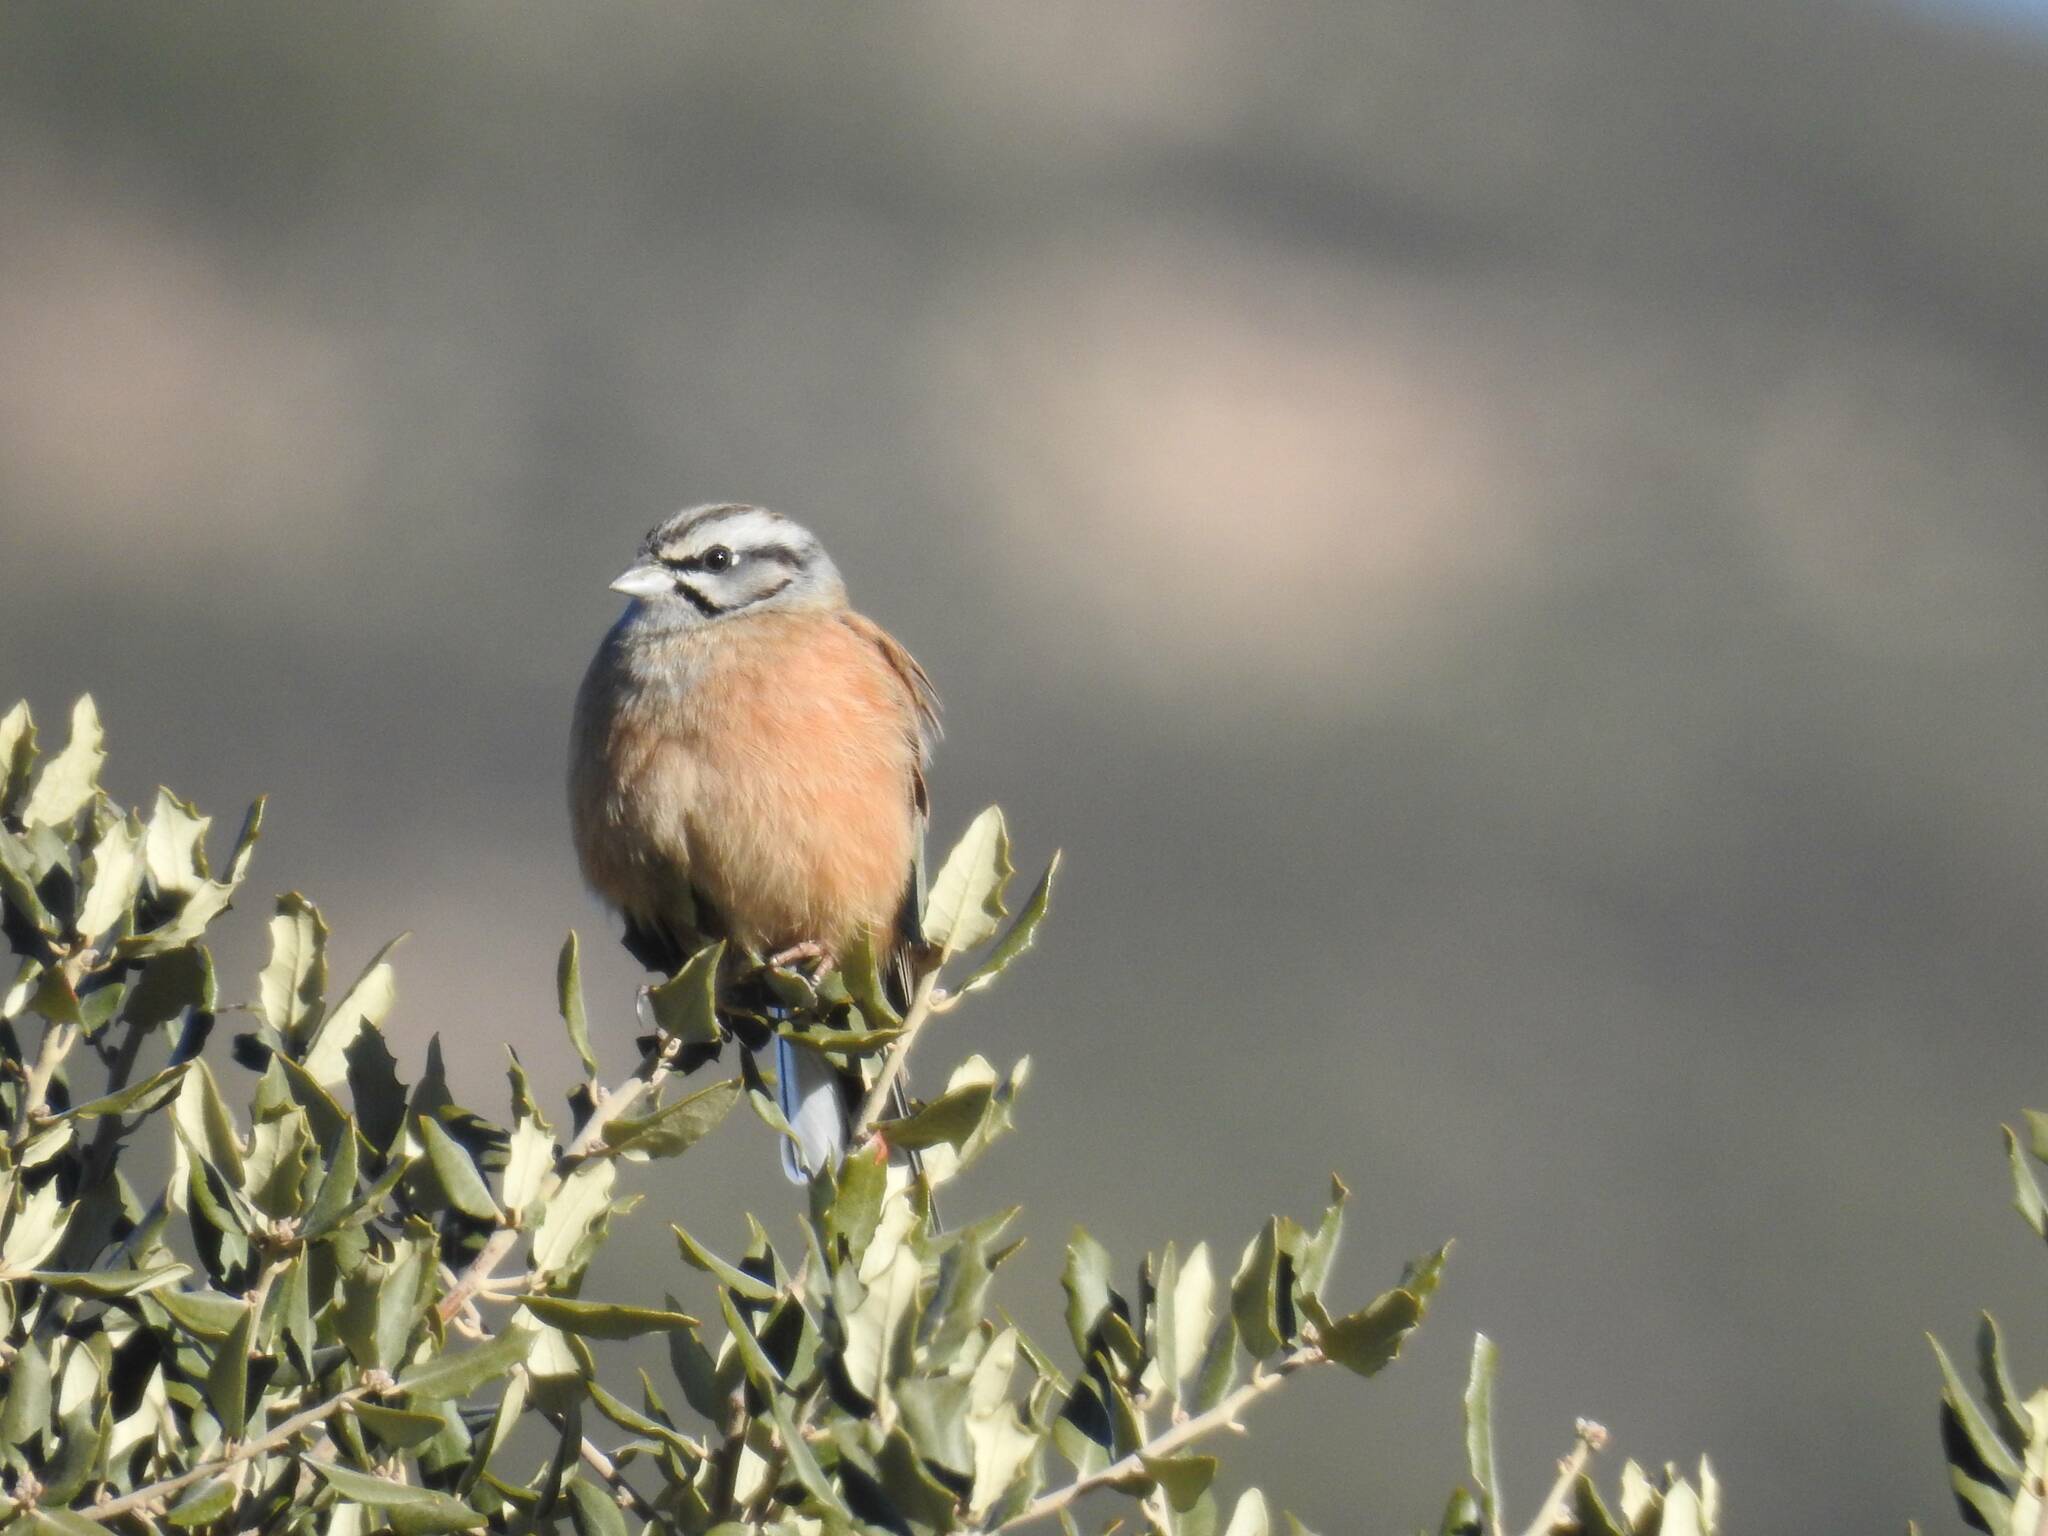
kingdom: Animalia
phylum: Chordata
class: Aves
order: Passeriformes
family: Emberizidae
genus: Emberiza
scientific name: Emberiza cia
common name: Rock bunting
